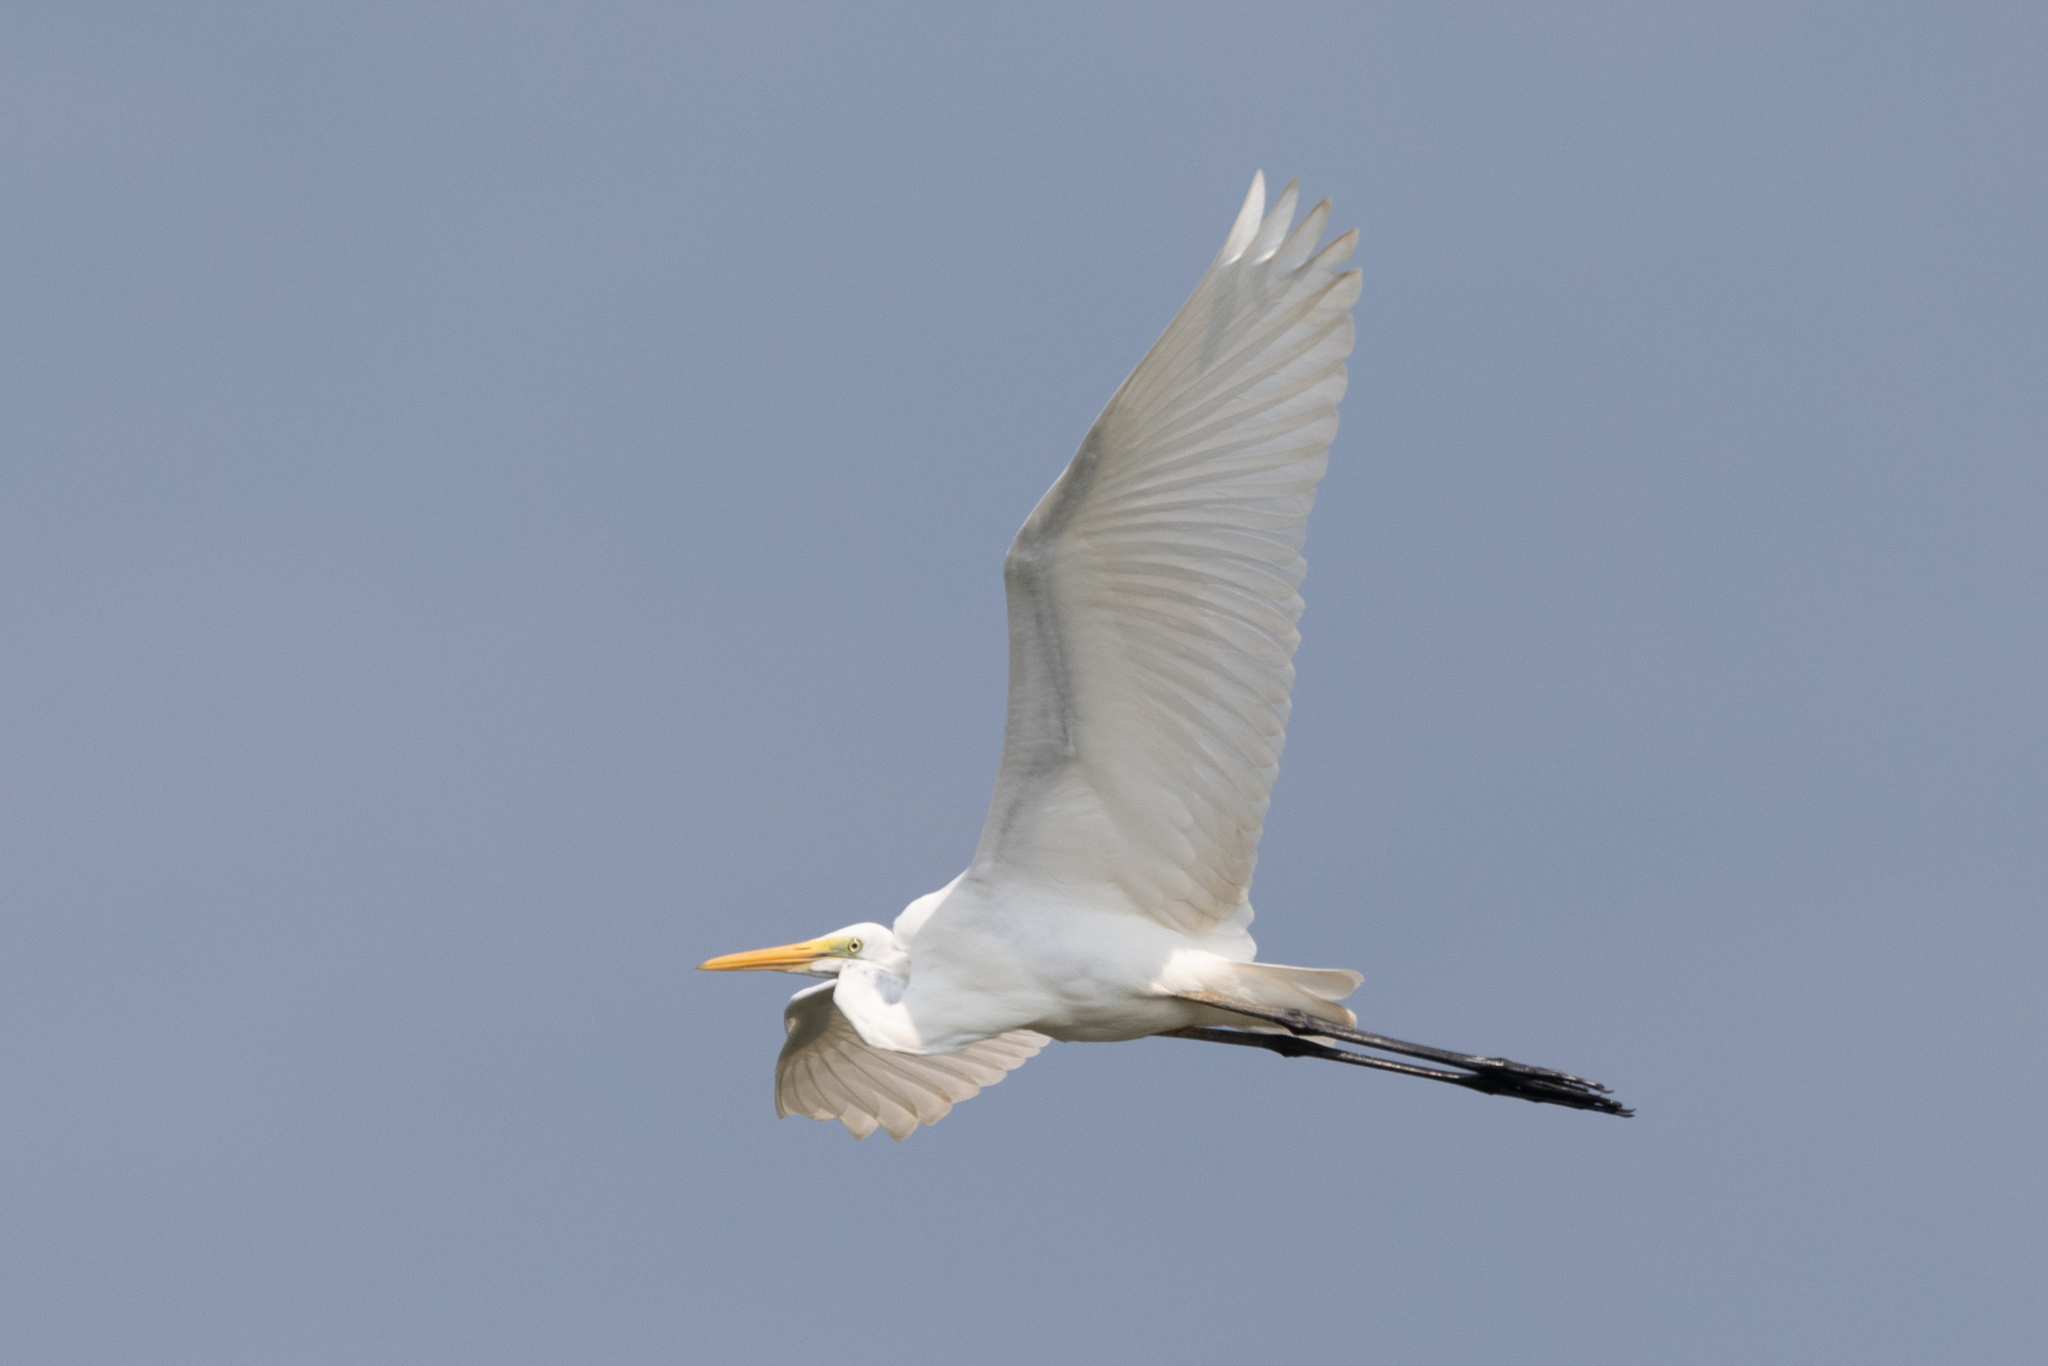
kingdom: Animalia
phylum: Chordata
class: Aves
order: Pelecaniformes
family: Ardeidae
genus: Ardea
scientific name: Ardea alba
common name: Great egret
